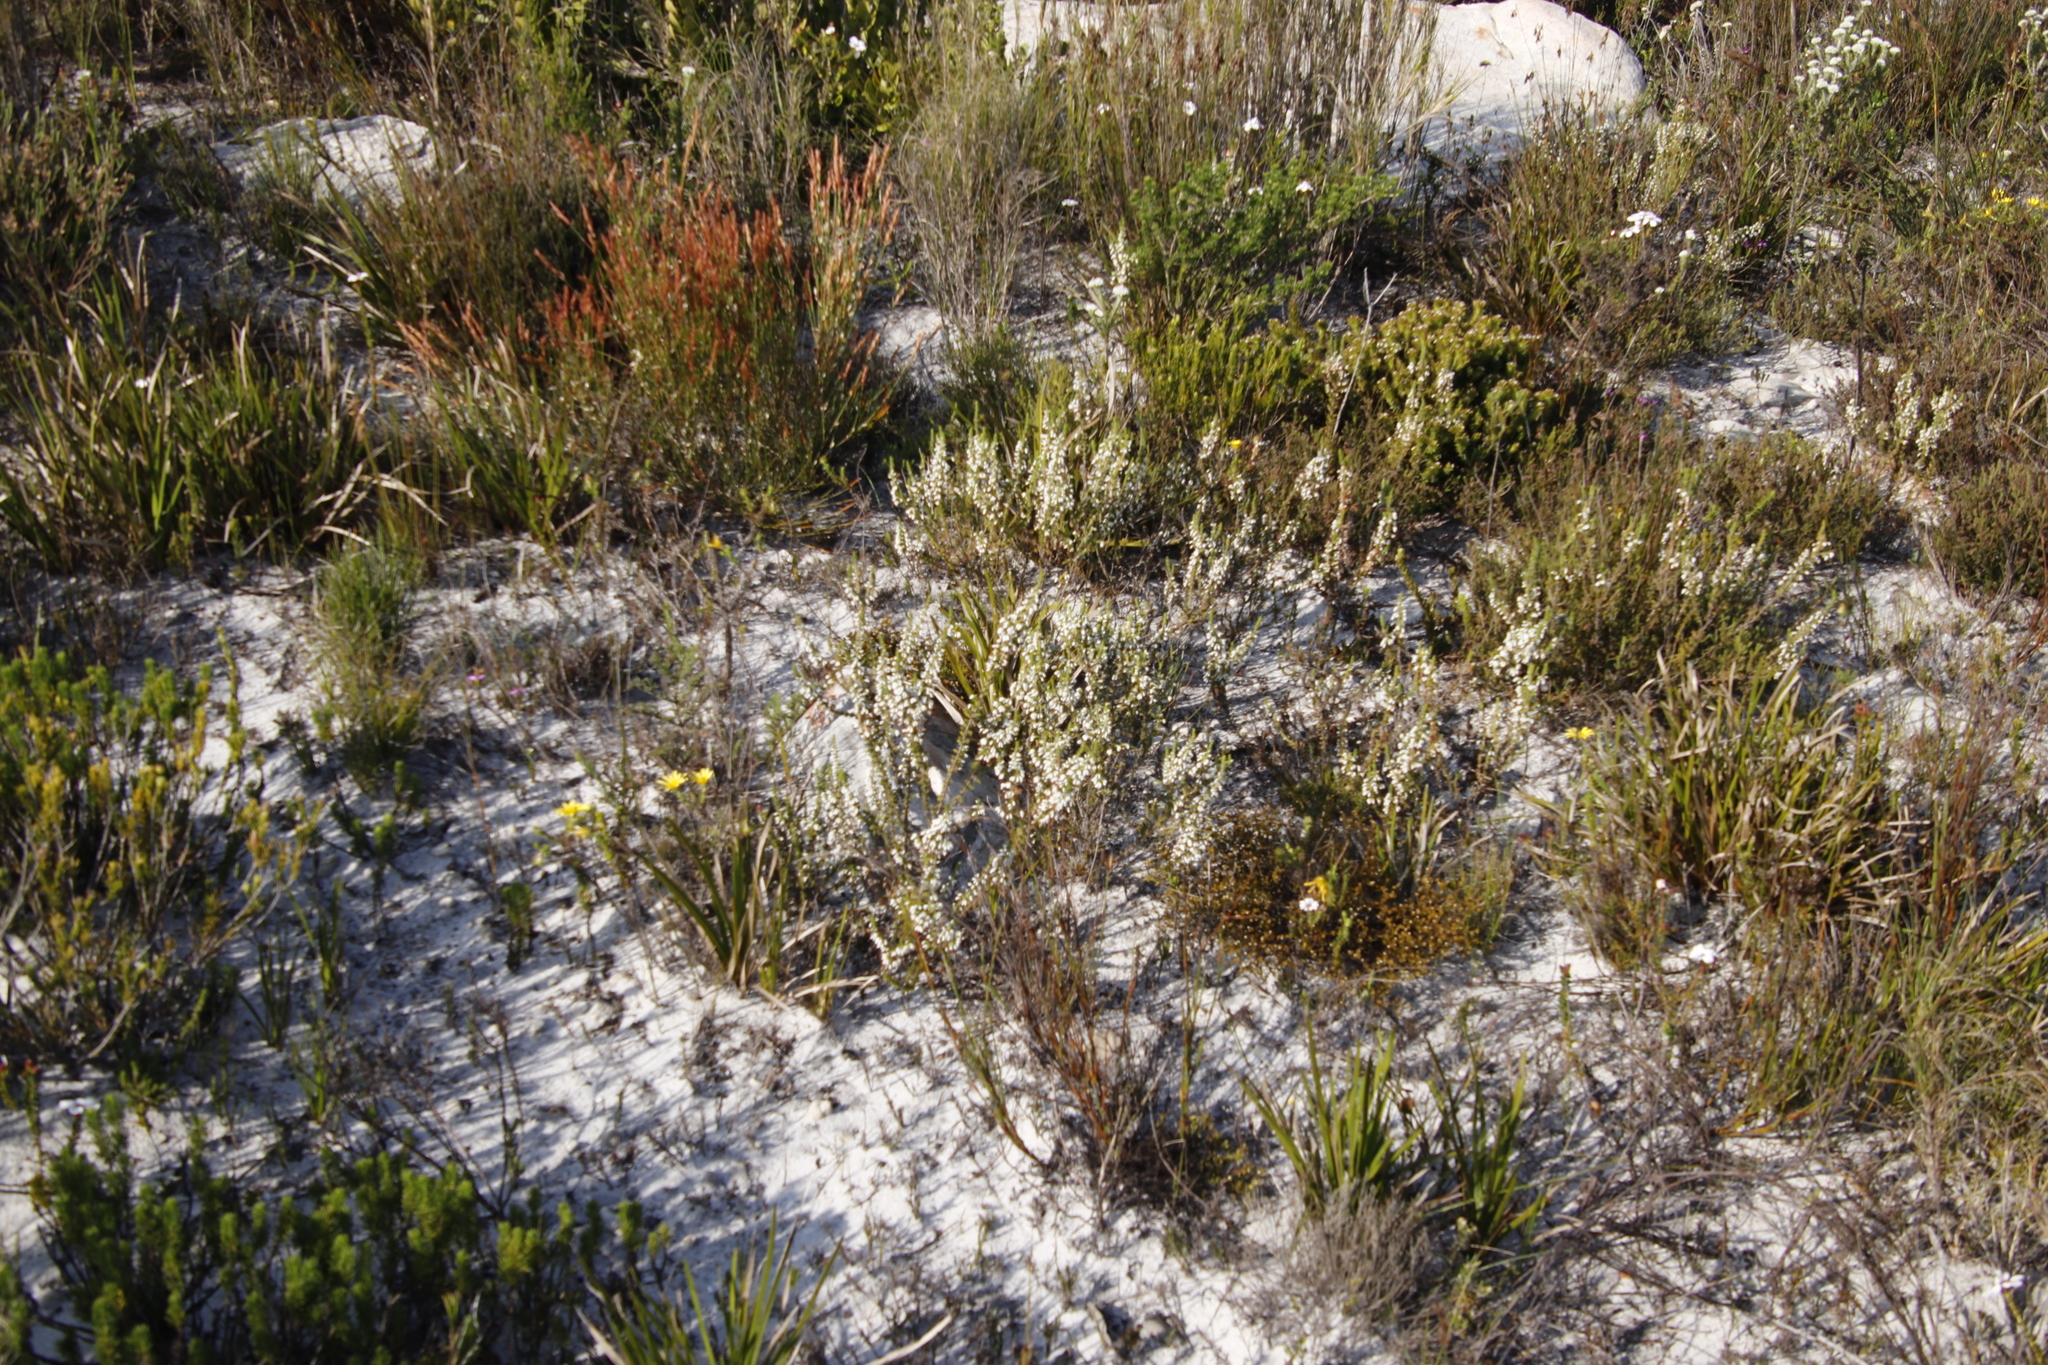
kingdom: Plantae
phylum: Tracheophyta
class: Magnoliopsida
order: Ericales
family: Ericaceae
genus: Erica
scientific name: Erica imbricata
